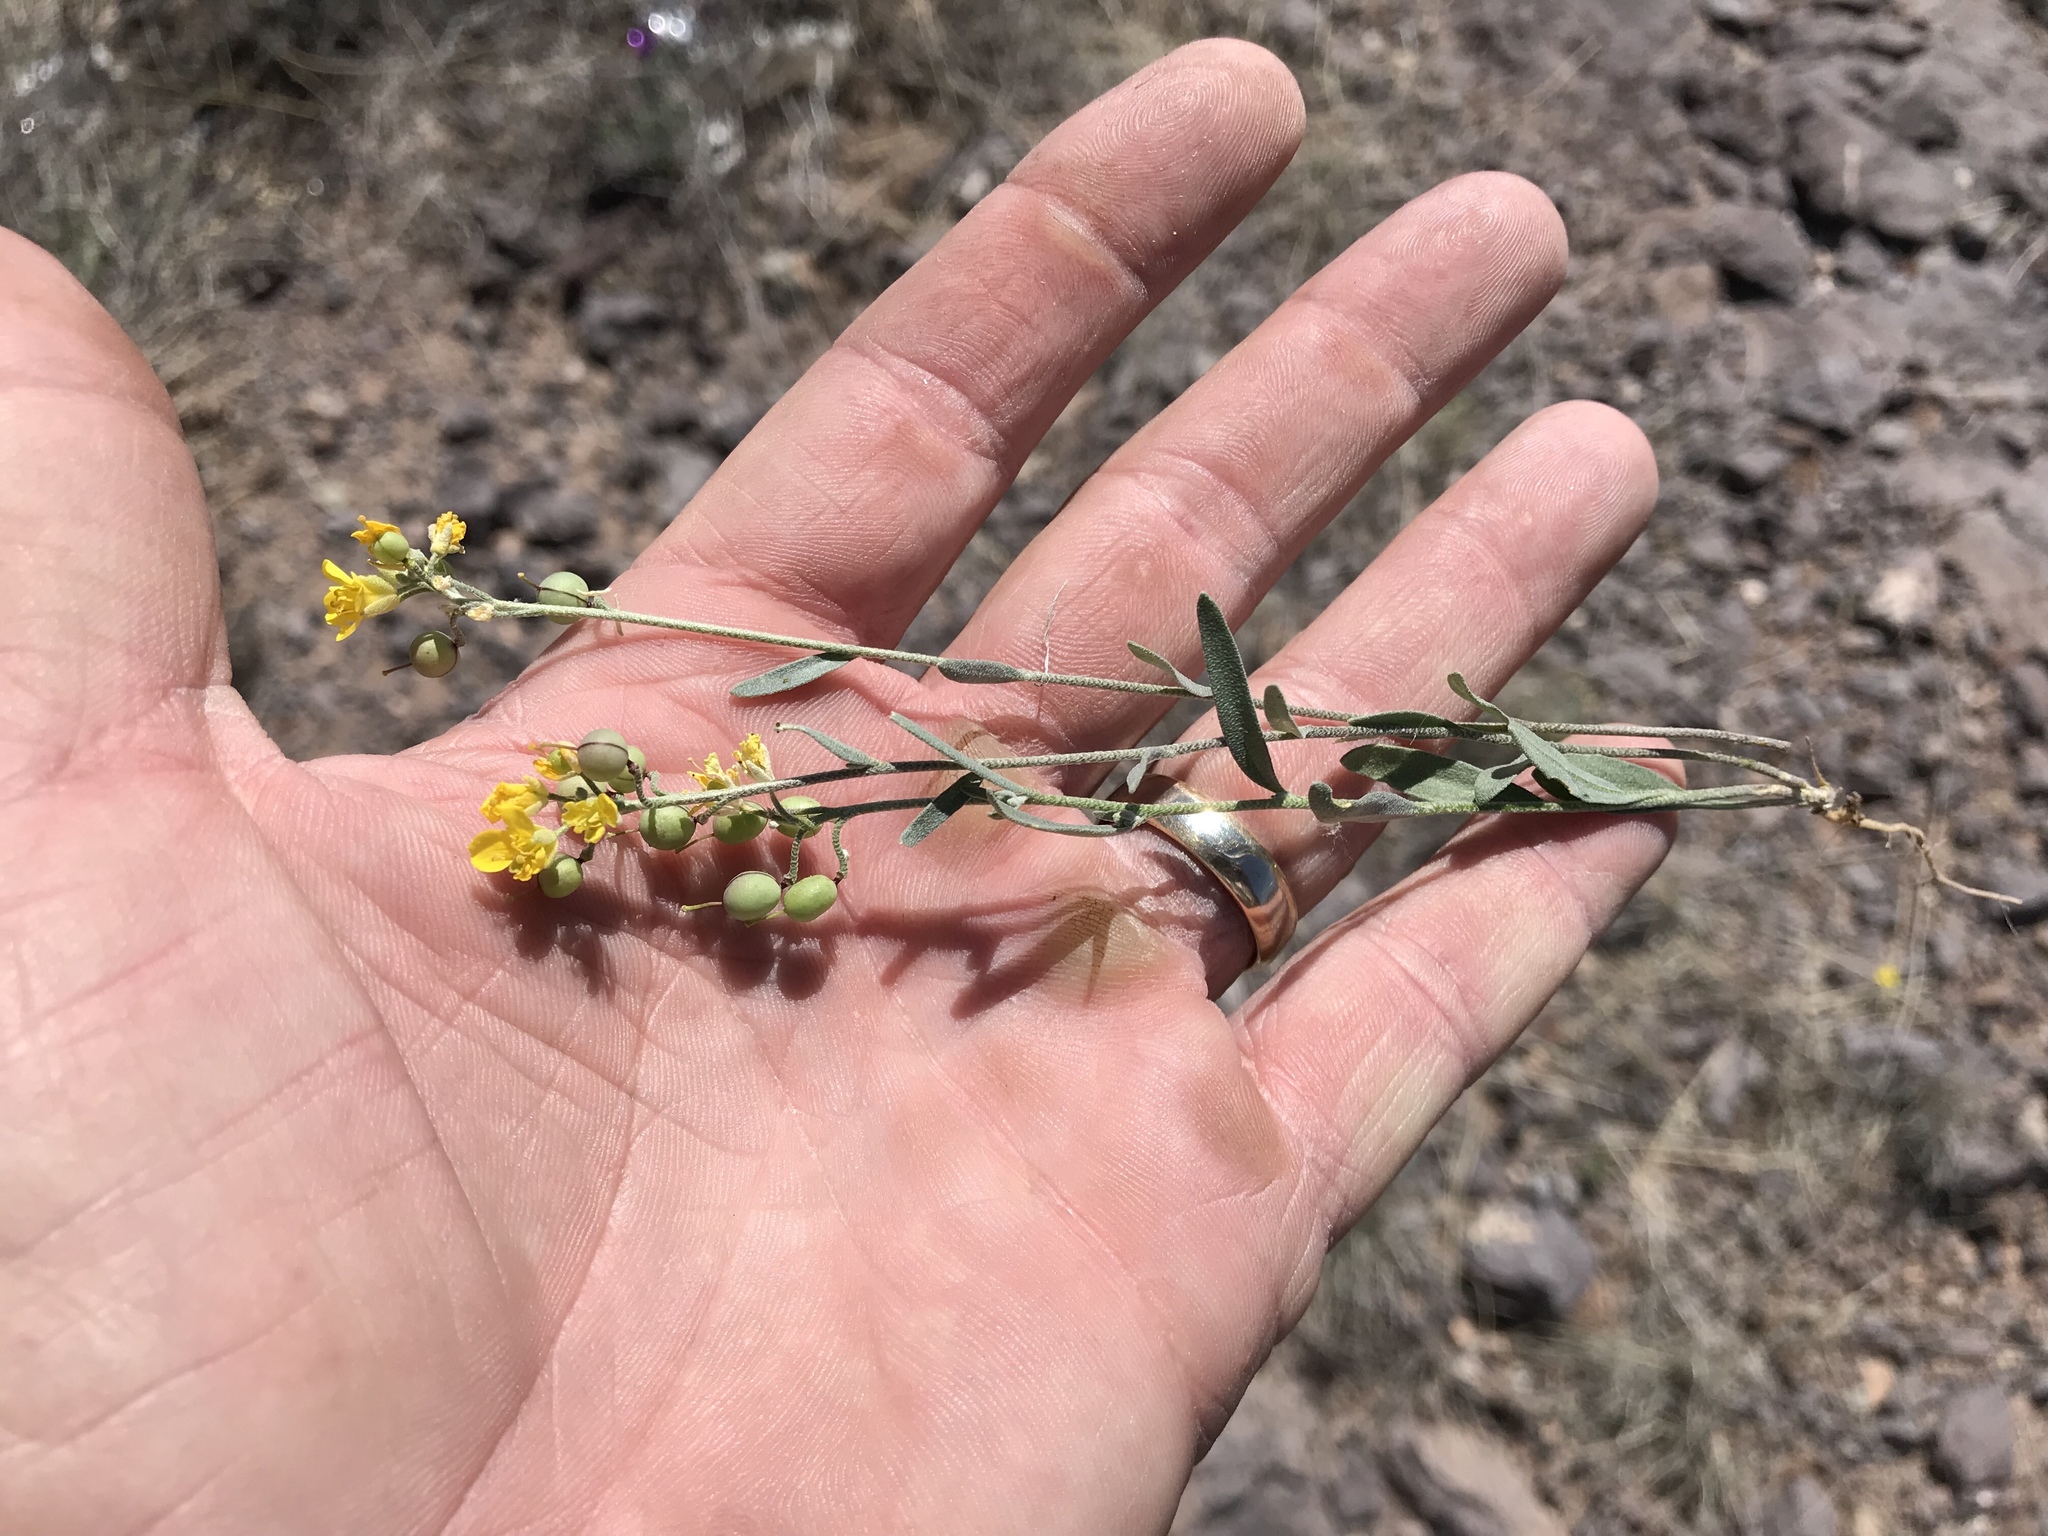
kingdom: Plantae
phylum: Tracheophyta
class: Magnoliopsida
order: Brassicales
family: Brassicaceae
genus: Physaria
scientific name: Physaria gordonii
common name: Gordon's bladderpod
